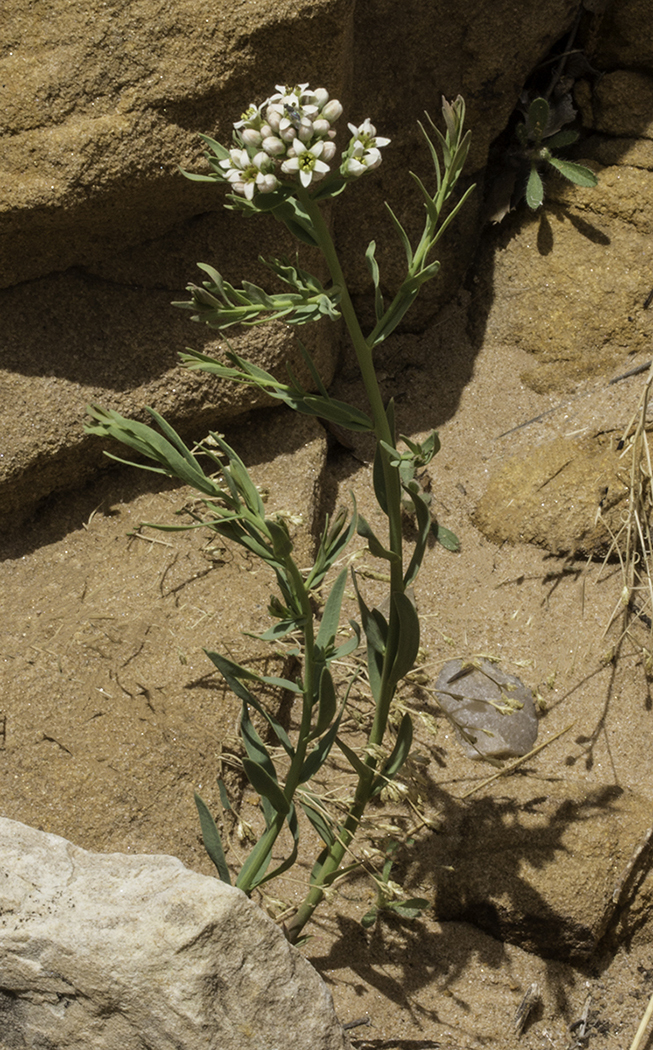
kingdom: Plantae
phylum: Tracheophyta
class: Magnoliopsida
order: Santalales
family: Comandraceae
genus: Comandra
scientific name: Comandra umbellata
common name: Bastard toadflax
